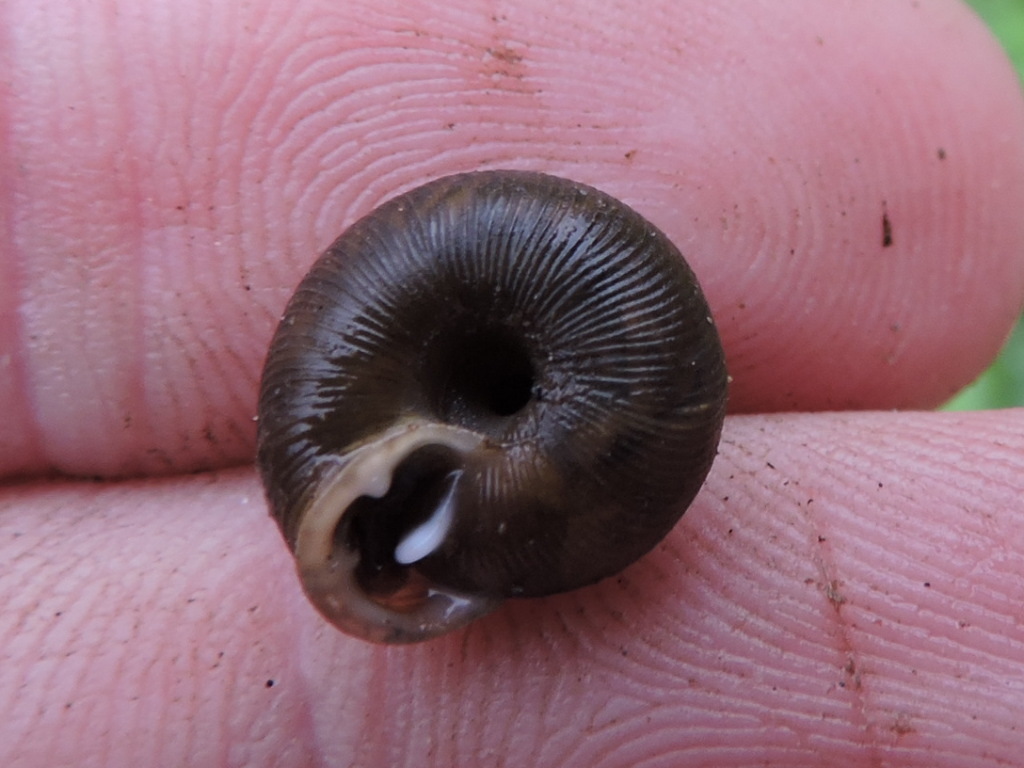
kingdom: Animalia
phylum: Mollusca
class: Gastropoda
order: Stylommatophora
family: Polygyridae
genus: Triodopsis
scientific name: Triodopsis cragini
